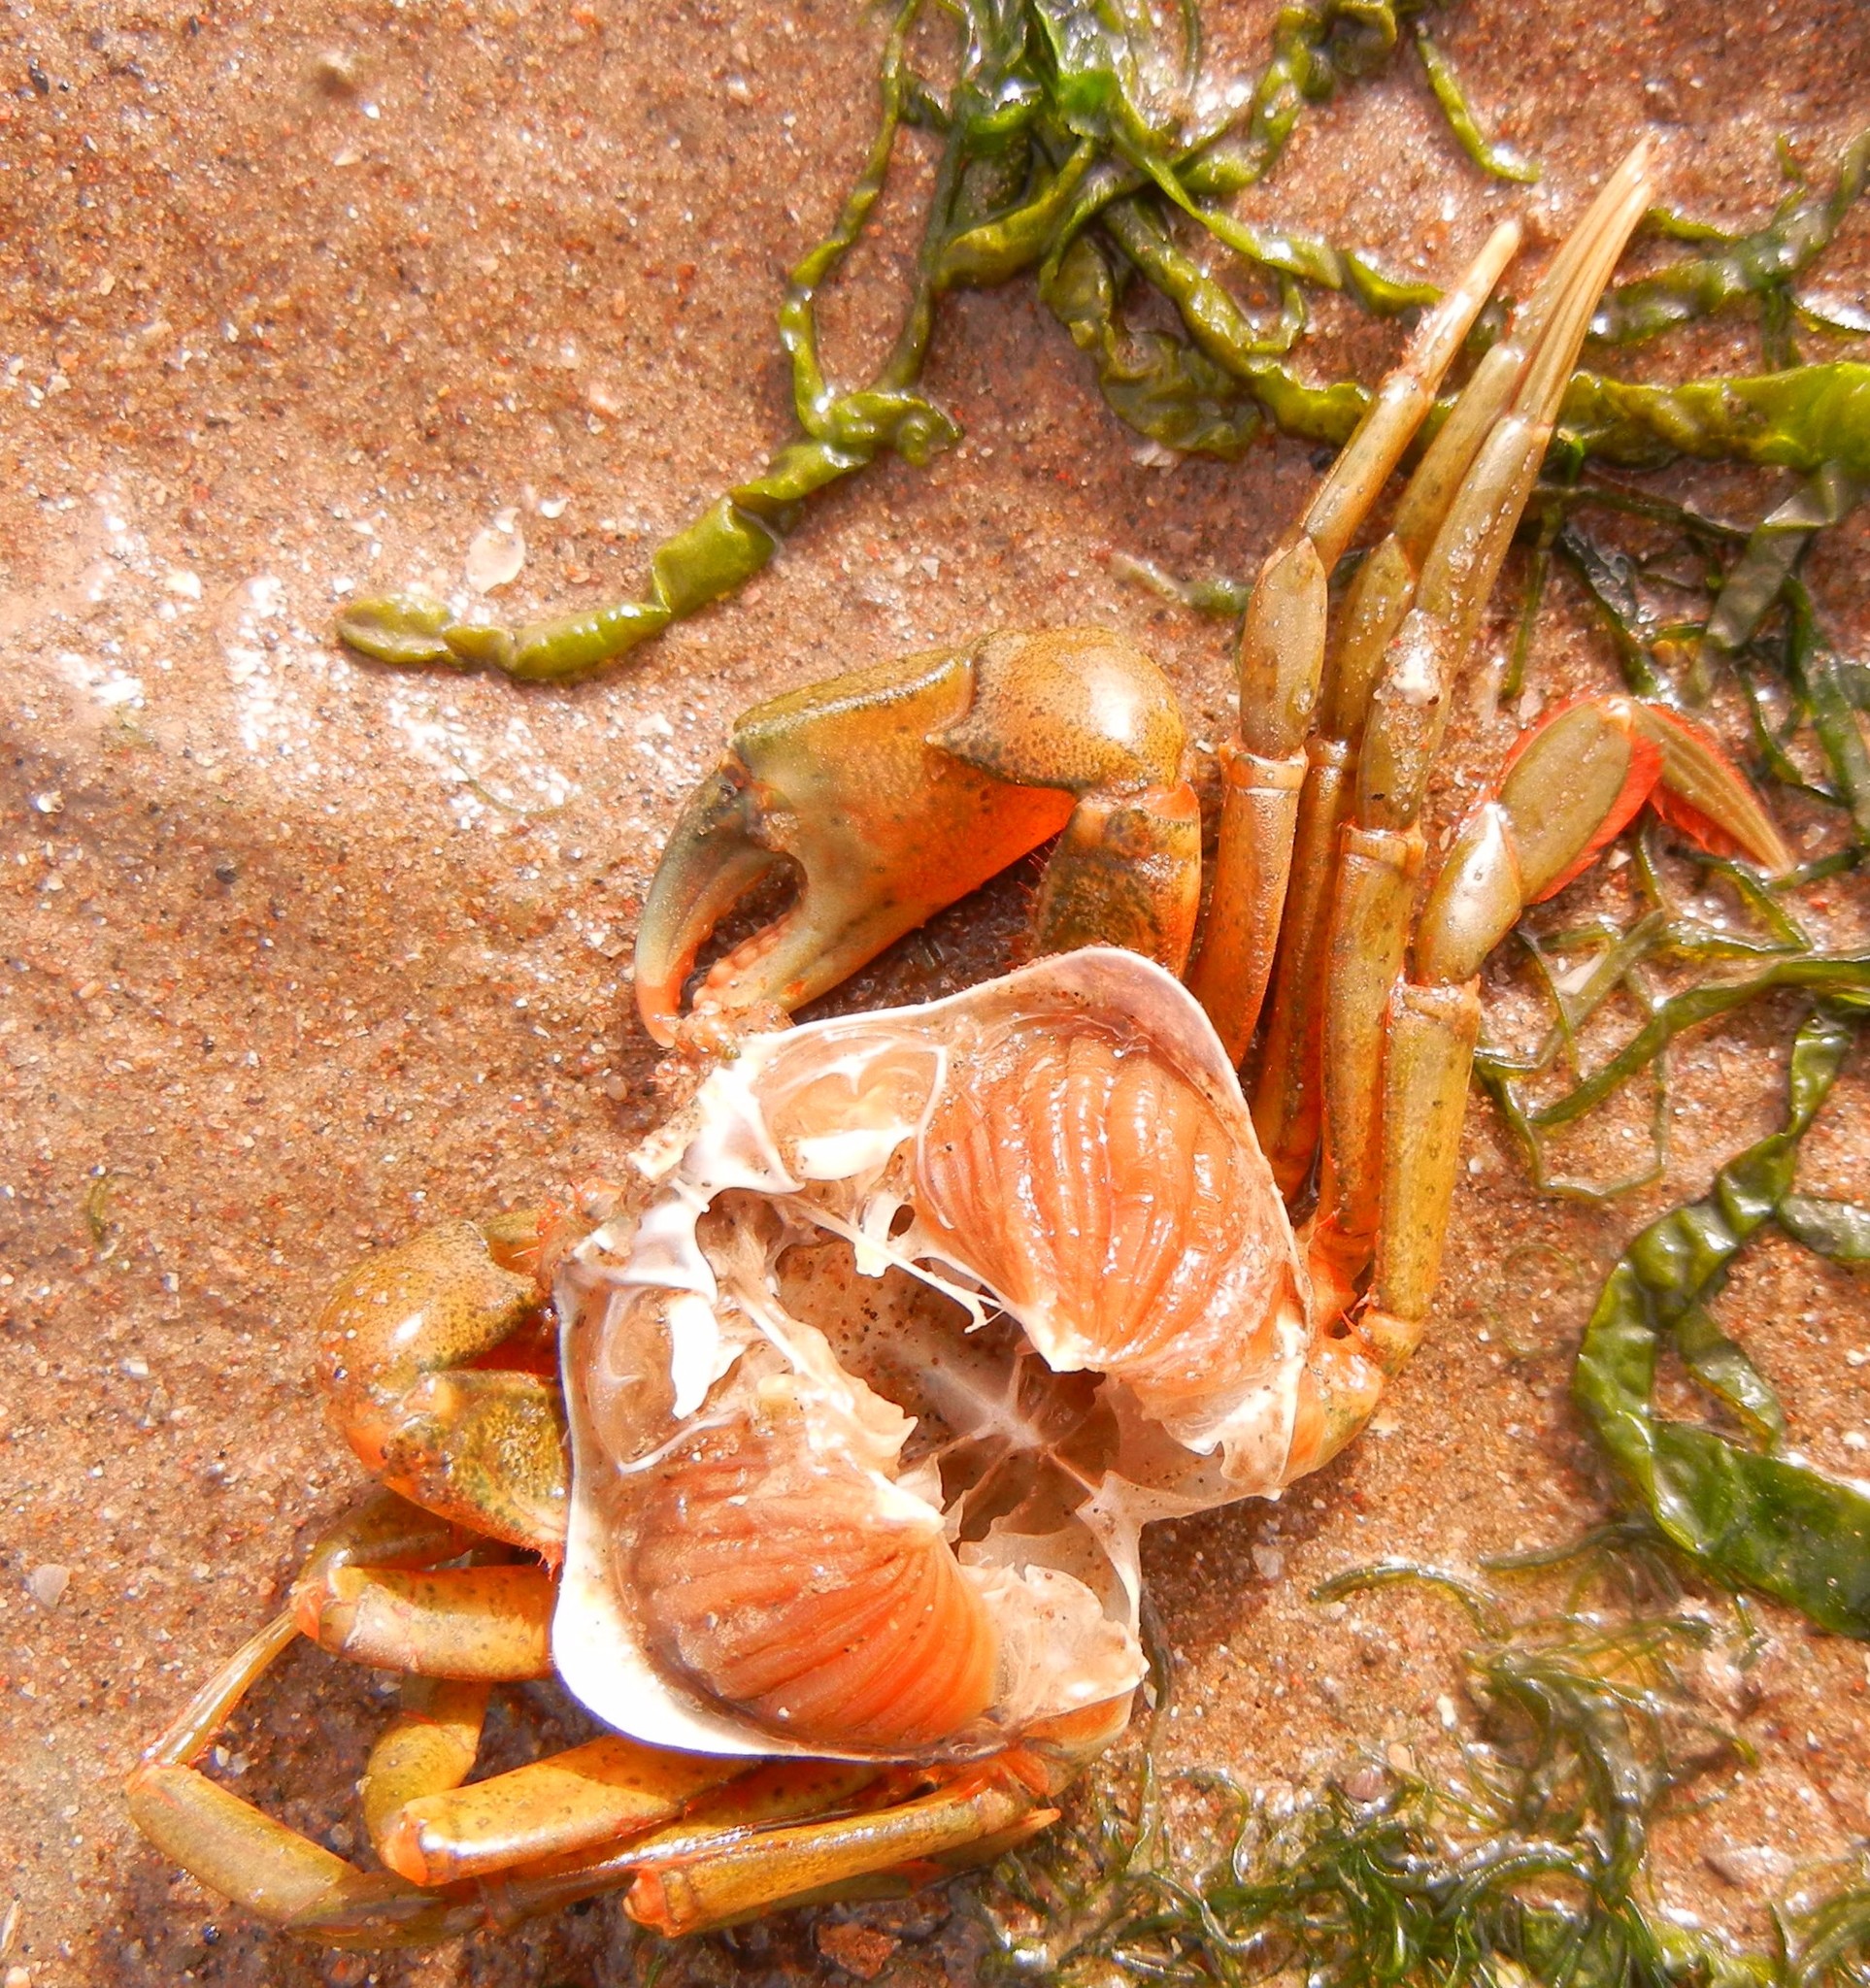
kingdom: Animalia
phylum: Arthropoda
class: Malacostraca
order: Decapoda
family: Carcinidae
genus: Carcinus
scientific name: Carcinus maenas
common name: European green crab
